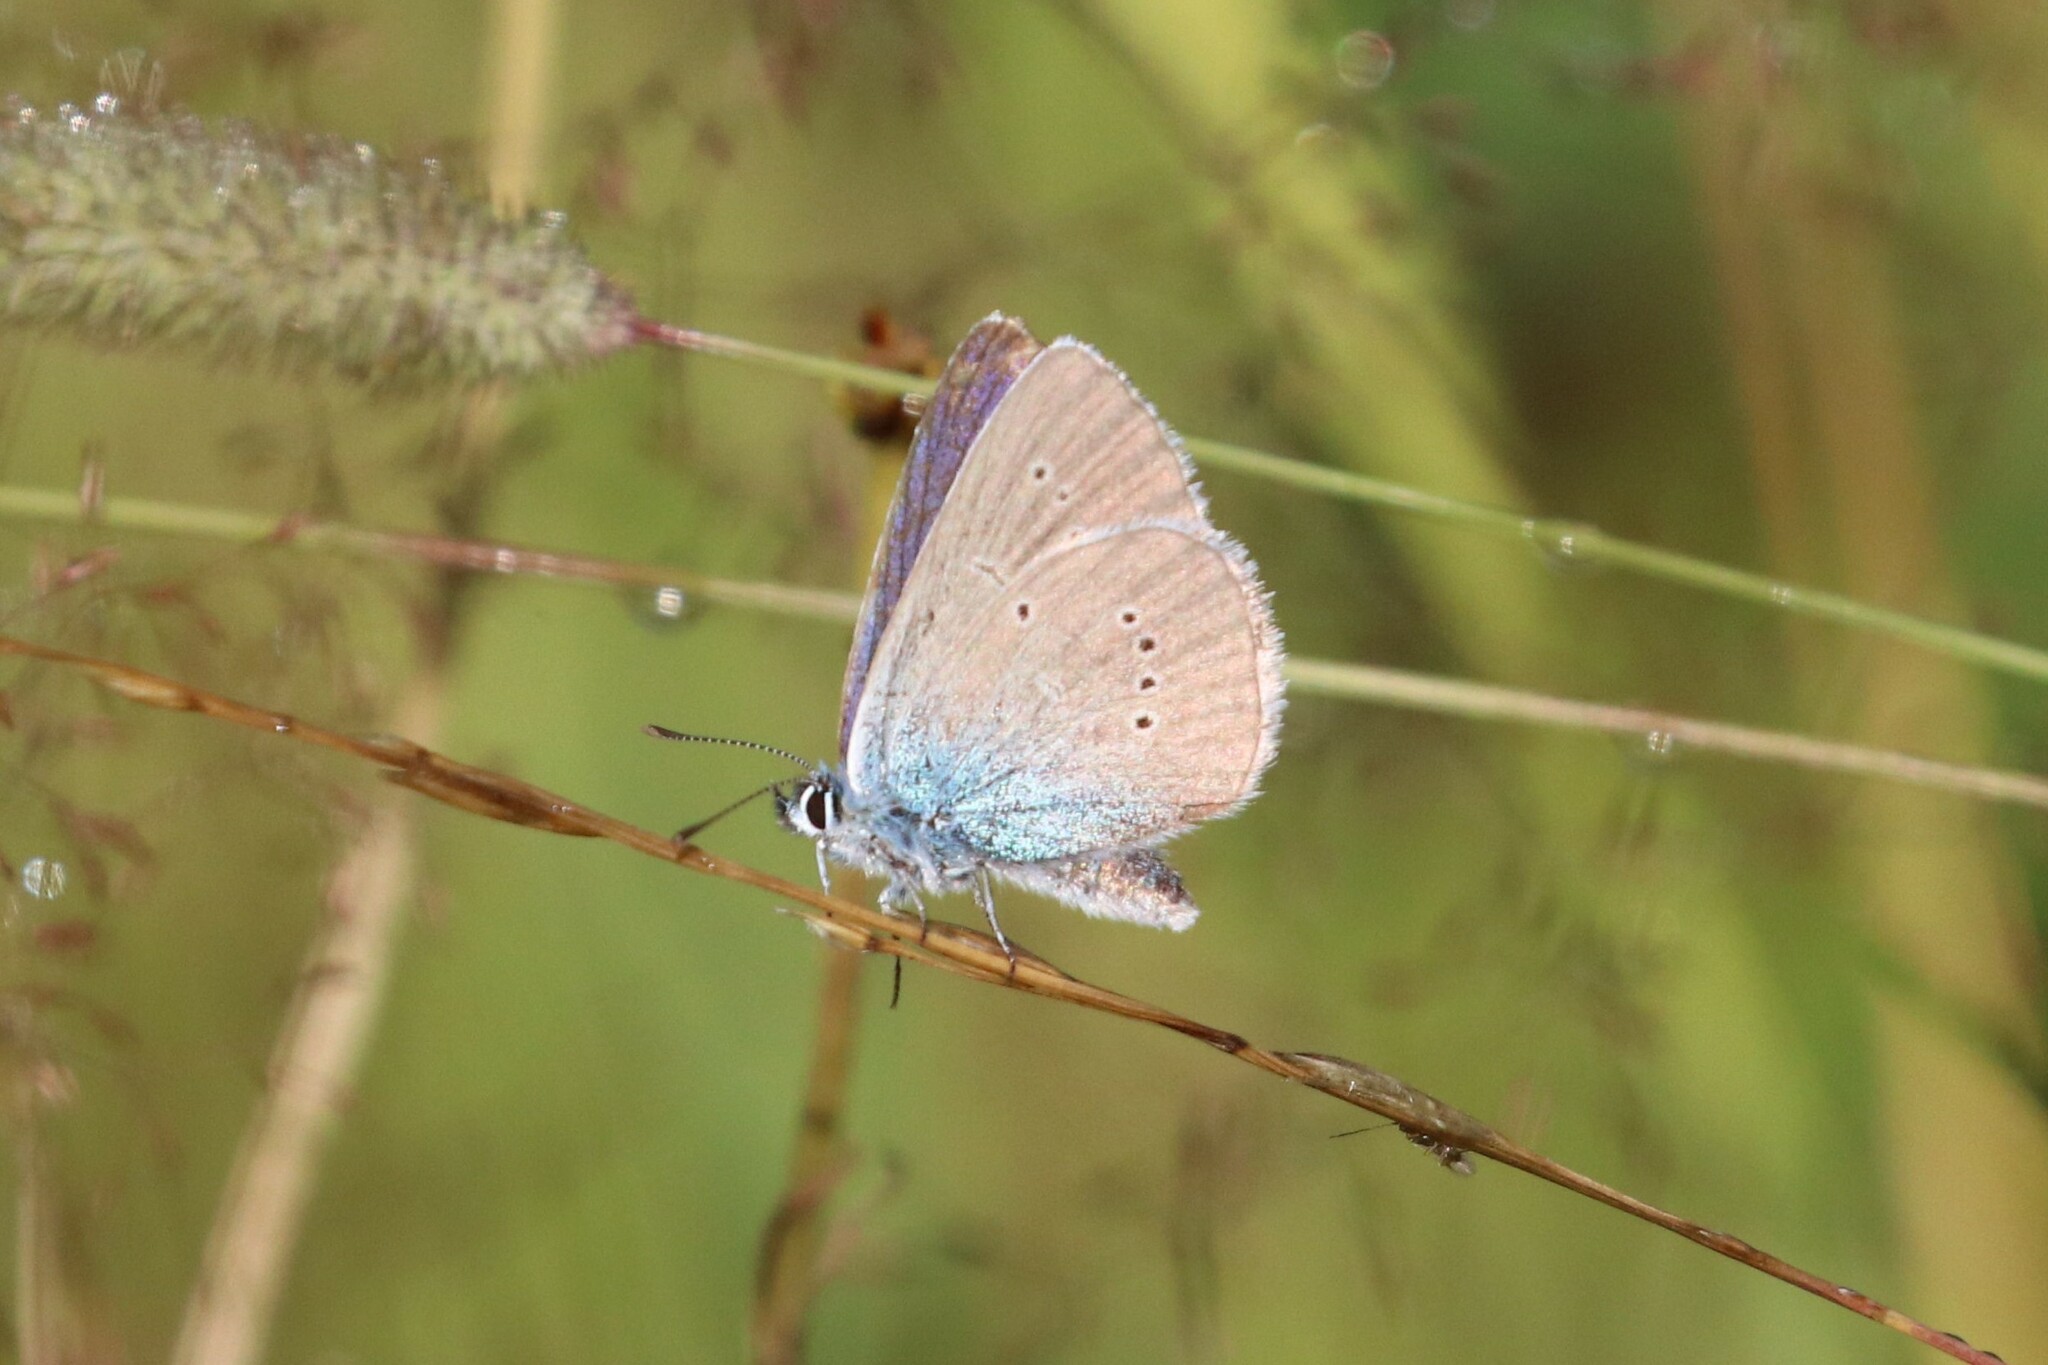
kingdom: Animalia
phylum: Arthropoda
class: Insecta
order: Lepidoptera
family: Lycaenidae
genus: Cyaniris
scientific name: Cyaniris semiargus
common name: Mazarine blue
